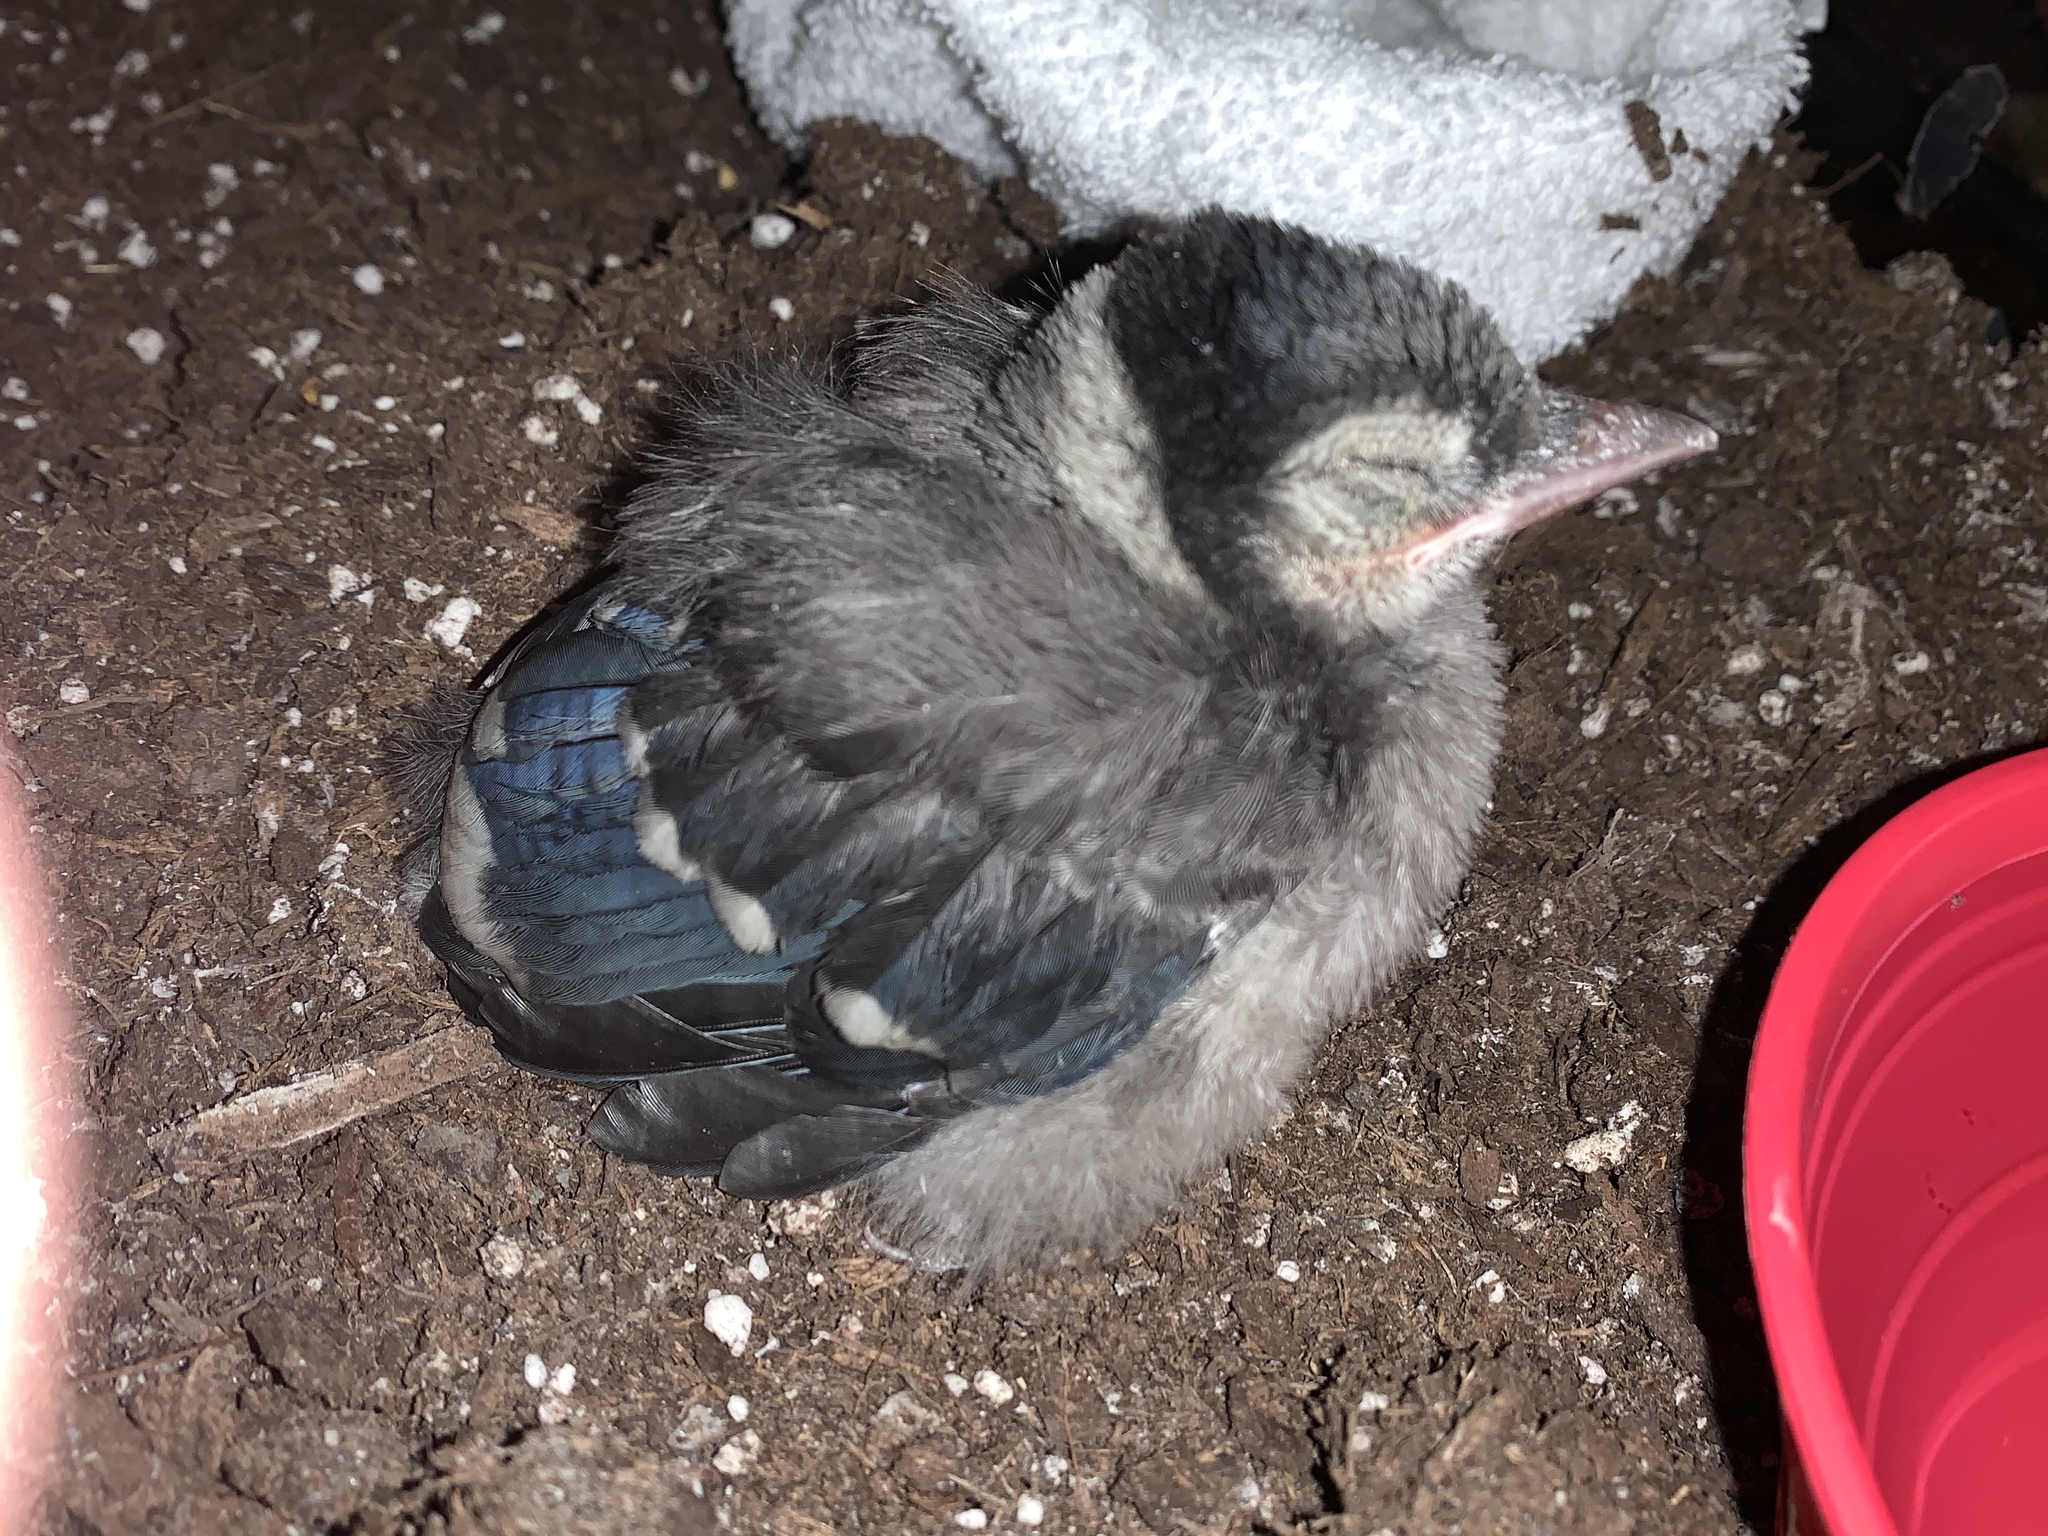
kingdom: Animalia
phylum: Chordata
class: Aves
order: Passeriformes
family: Corvidae
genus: Cyanocitta
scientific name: Cyanocitta cristata
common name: Blue jay
